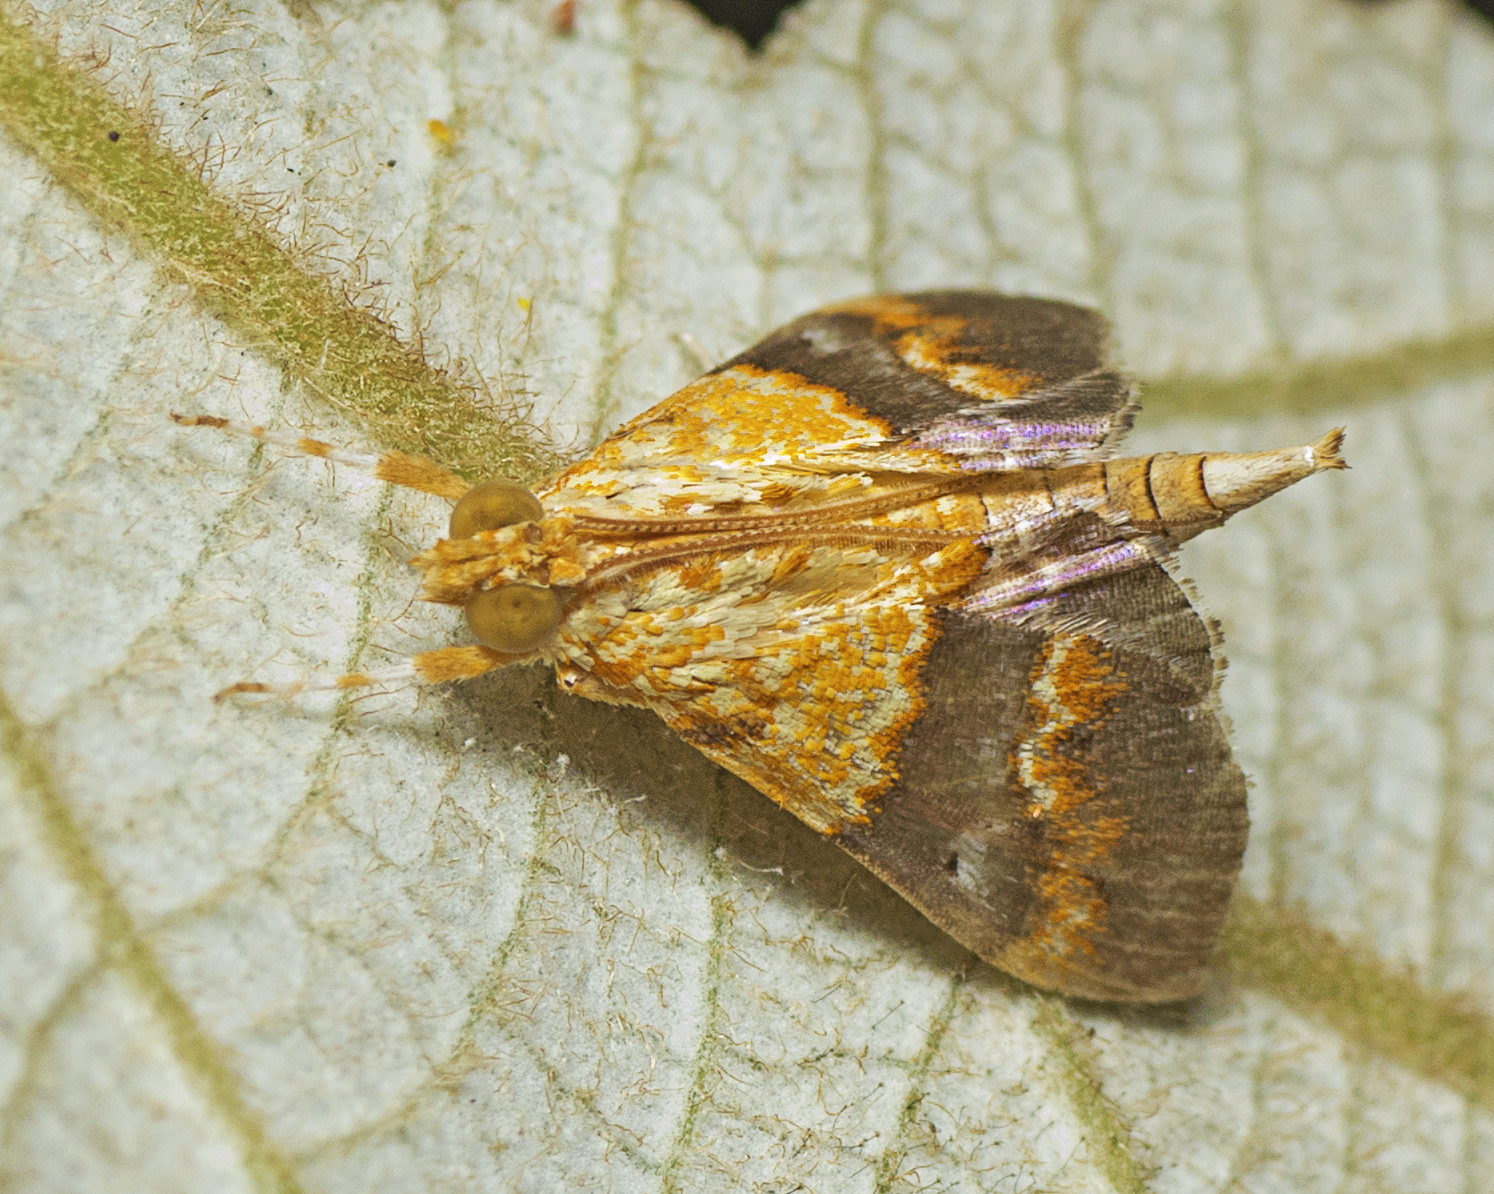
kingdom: Animalia
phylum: Arthropoda
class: Insecta
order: Lepidoptera
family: Crambidae
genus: Agrotera
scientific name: Agrotera Tetracona amathealis
